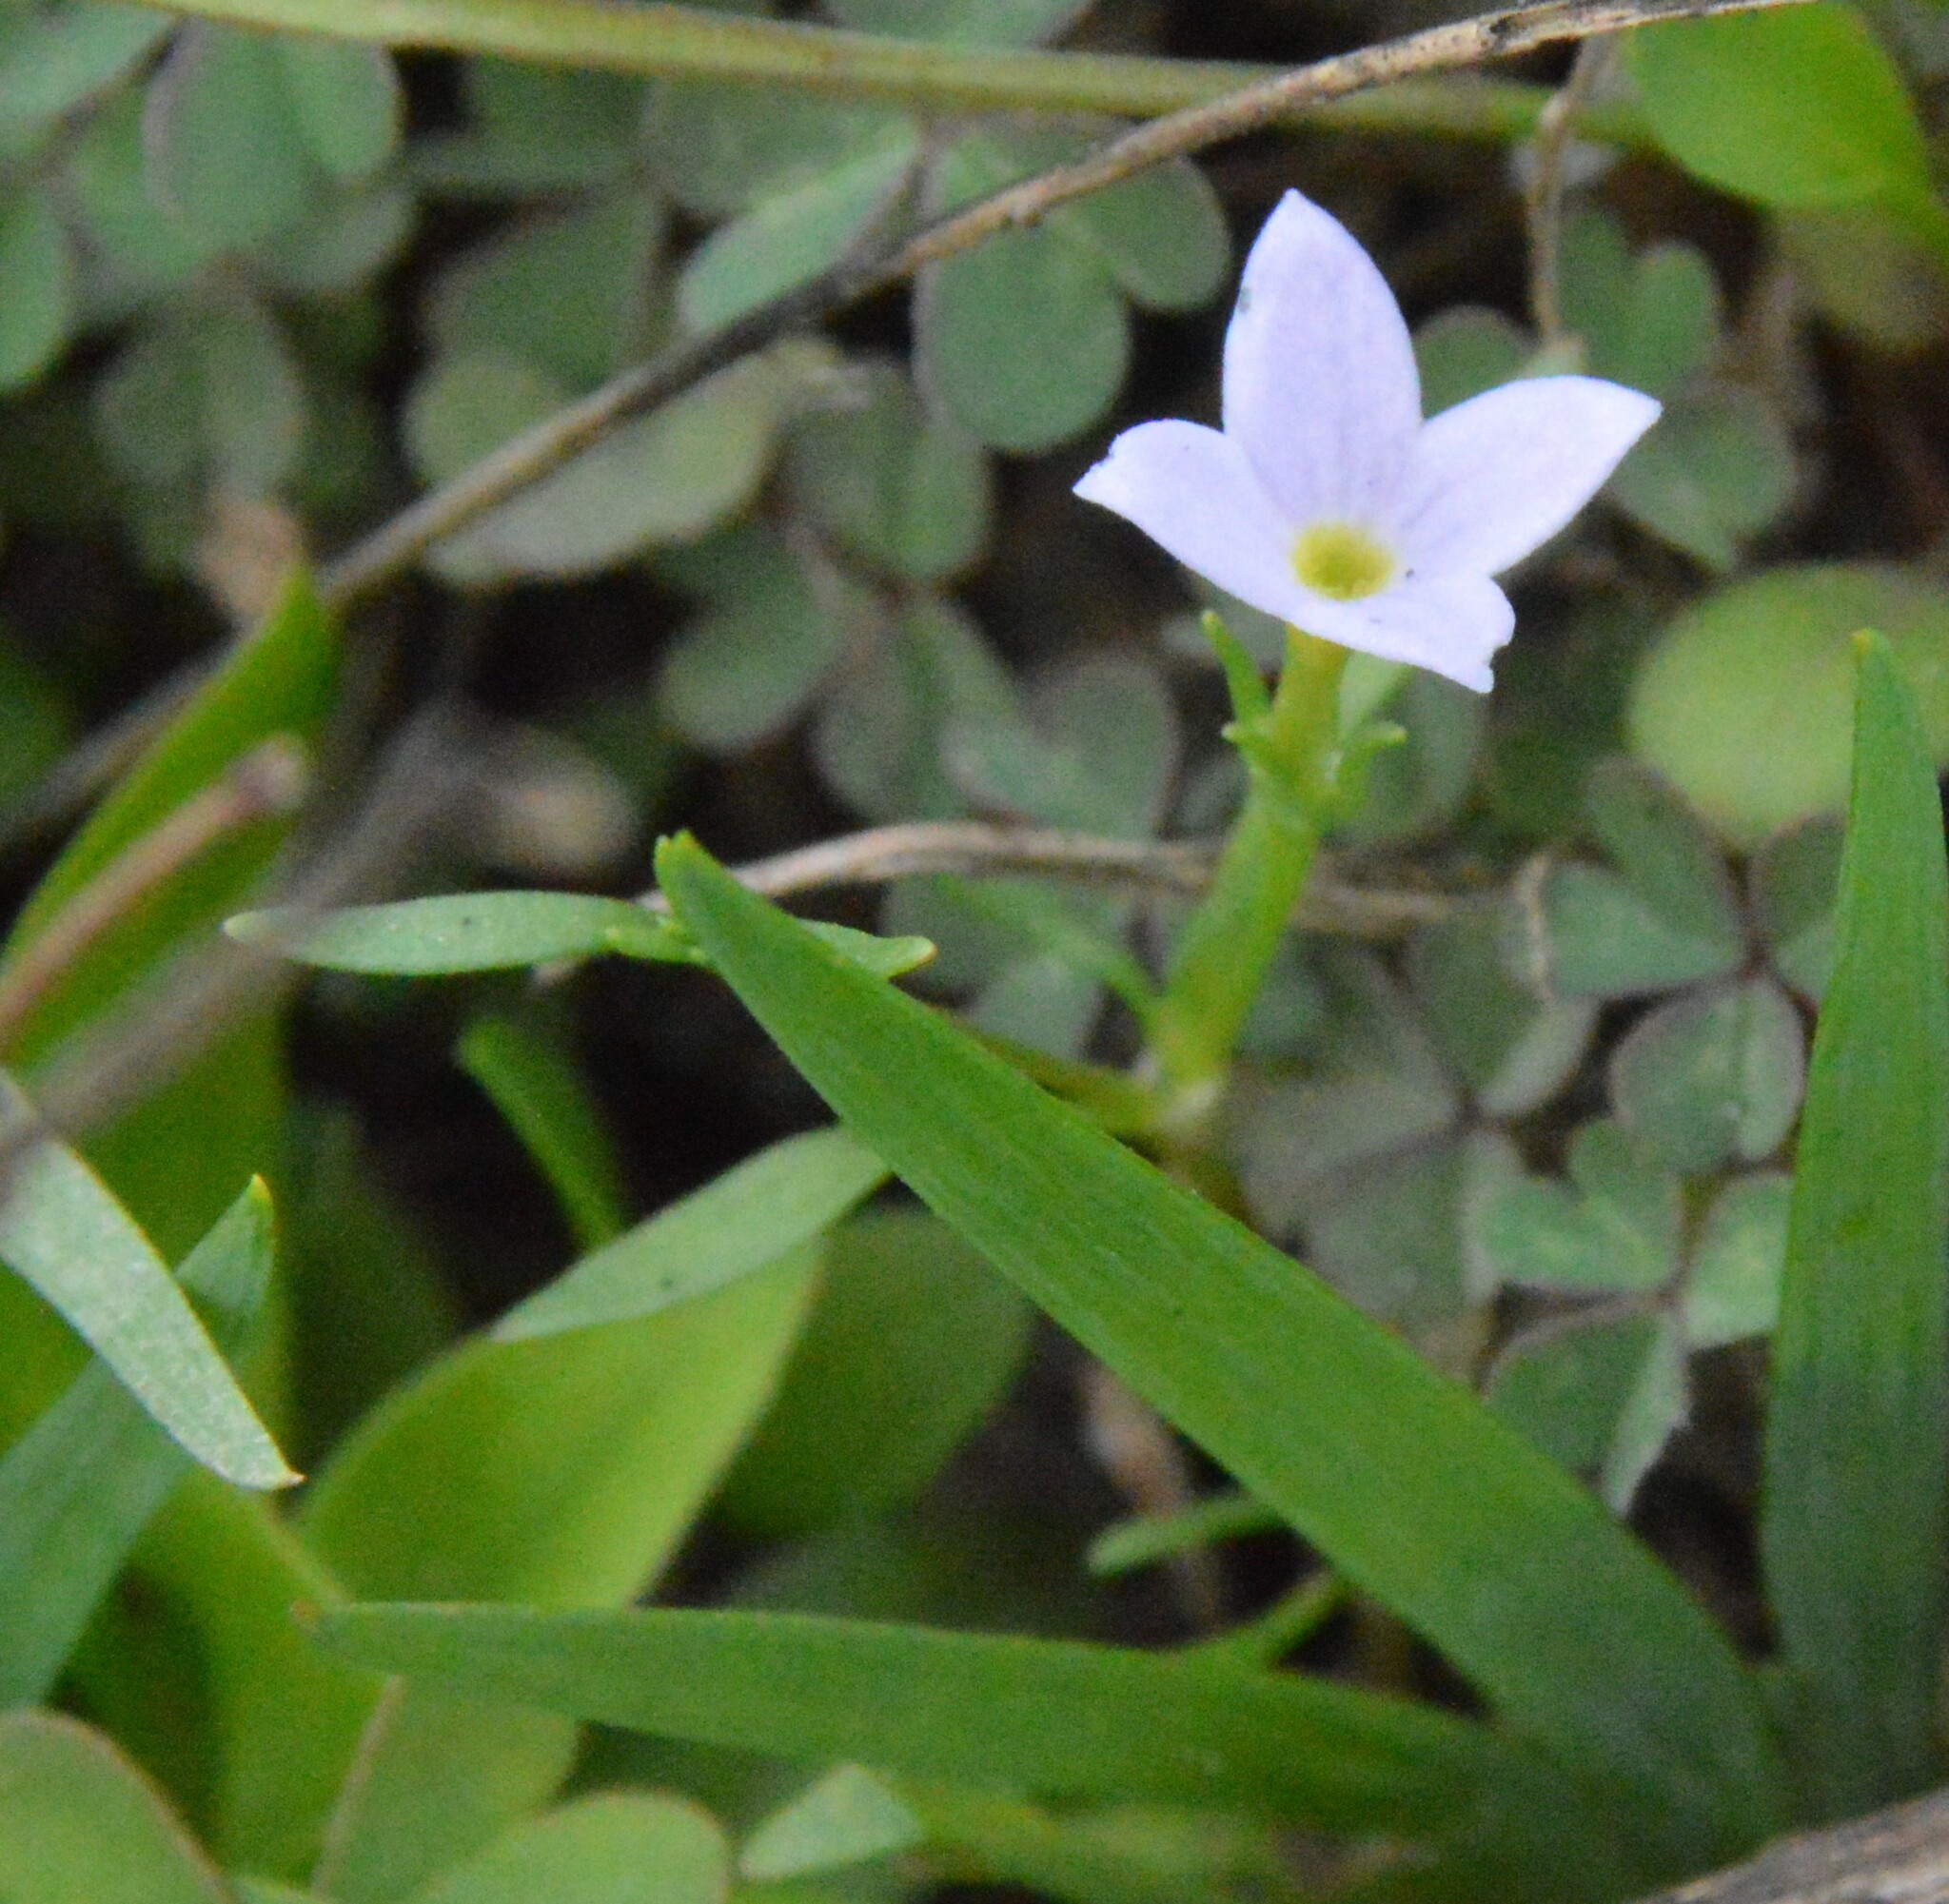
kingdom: Plantae
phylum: Tracheophyta
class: Magnoliopsida
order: Gentianales
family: Rubiaceae
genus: Houstonia
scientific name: Houstonia rosea
